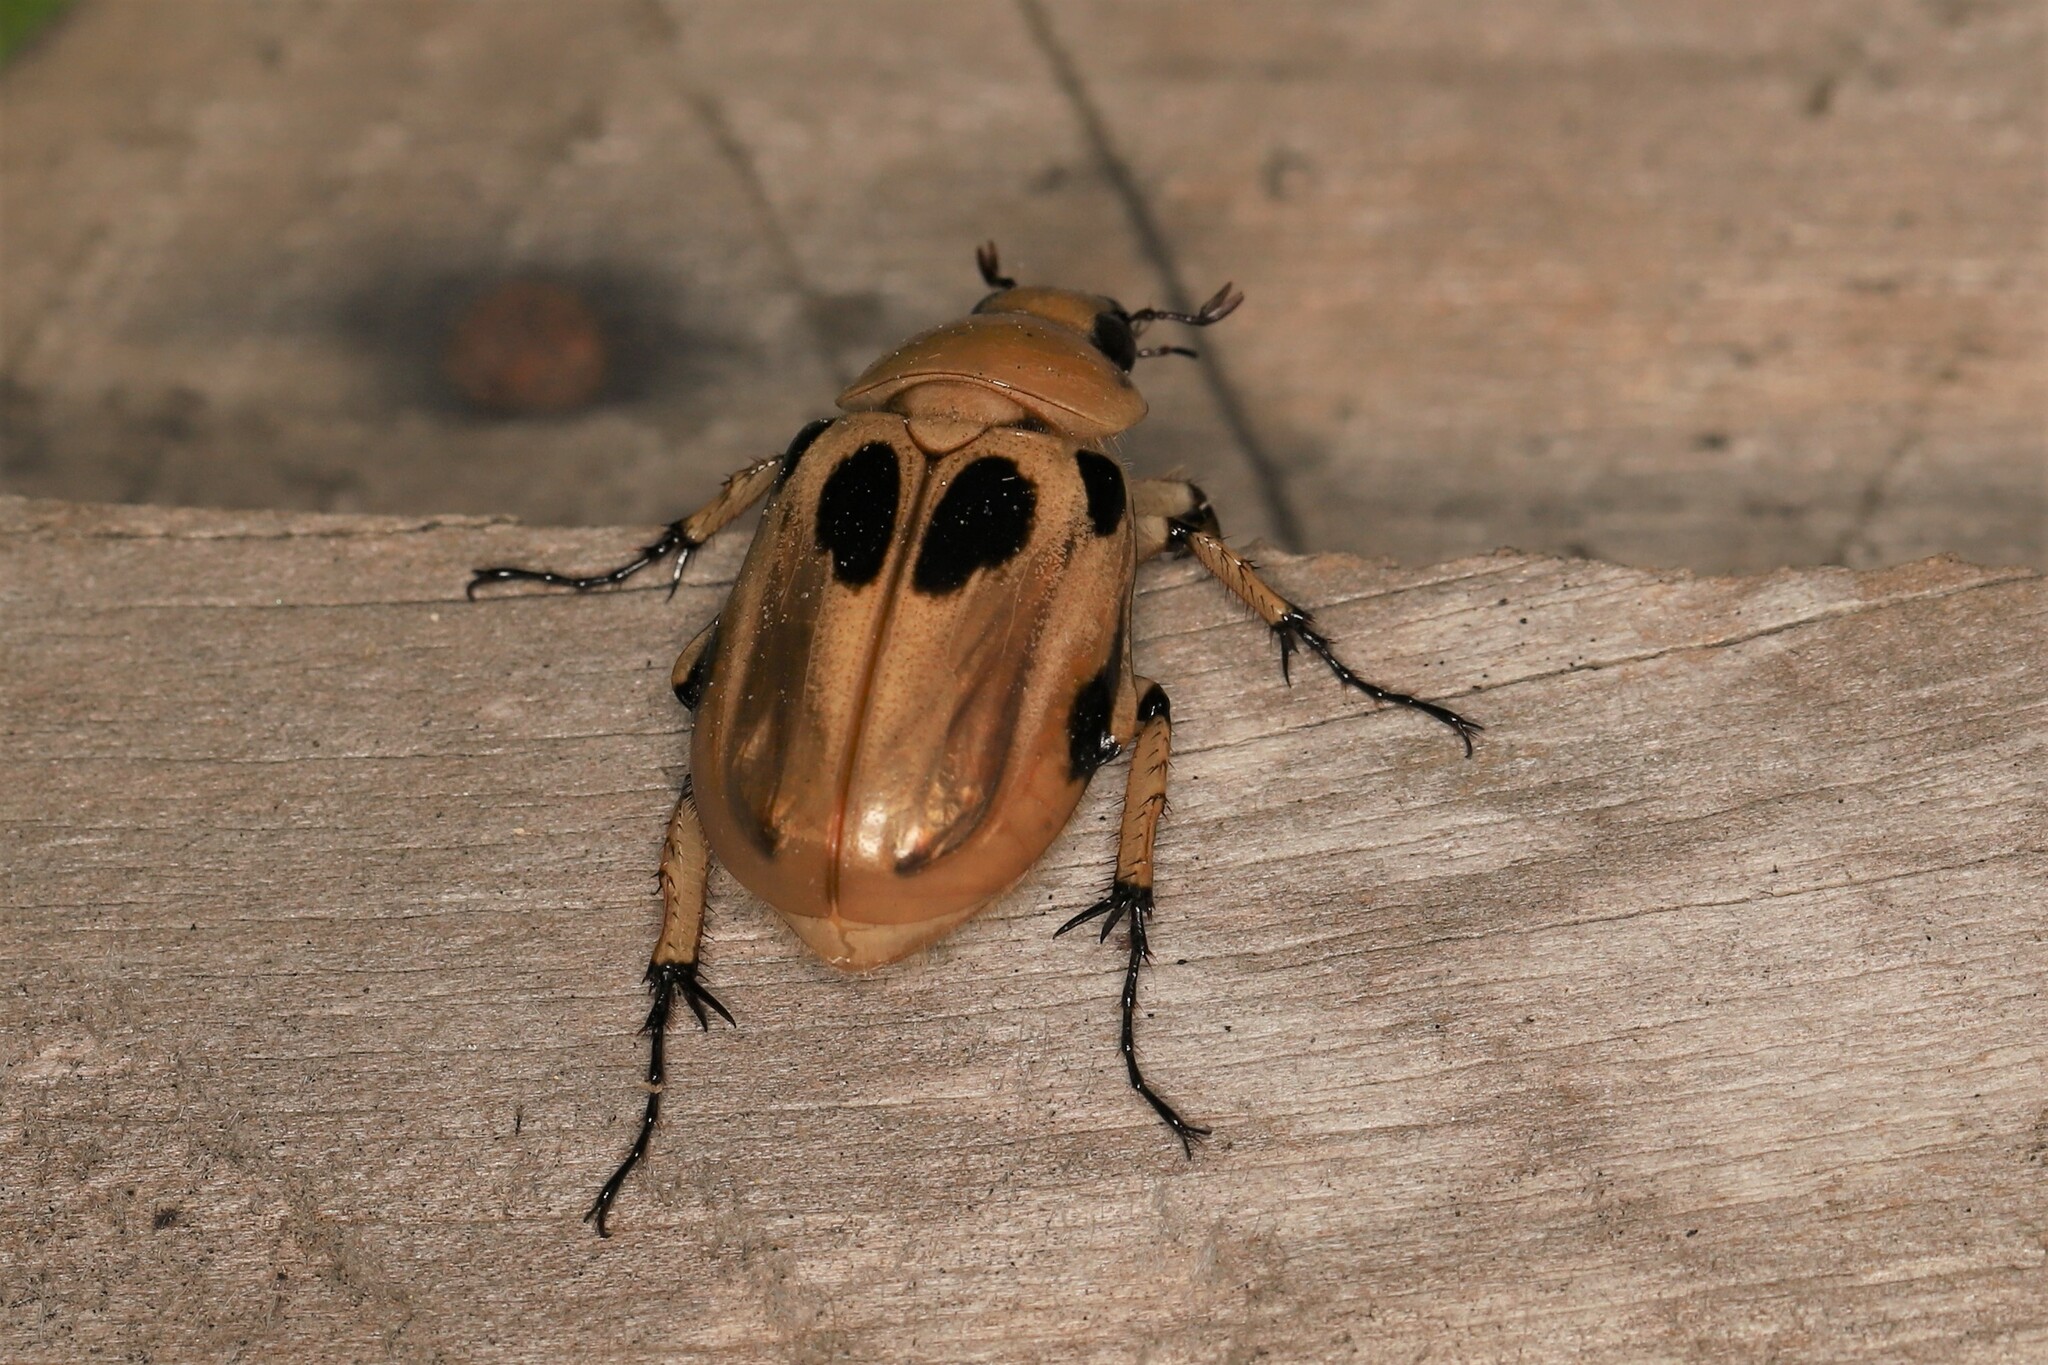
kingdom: Animalia
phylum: Arthropoda
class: Insecta
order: Coleoptera
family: Scarabaeidae
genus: Ancognatha
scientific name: Ancognatha vulgaris
